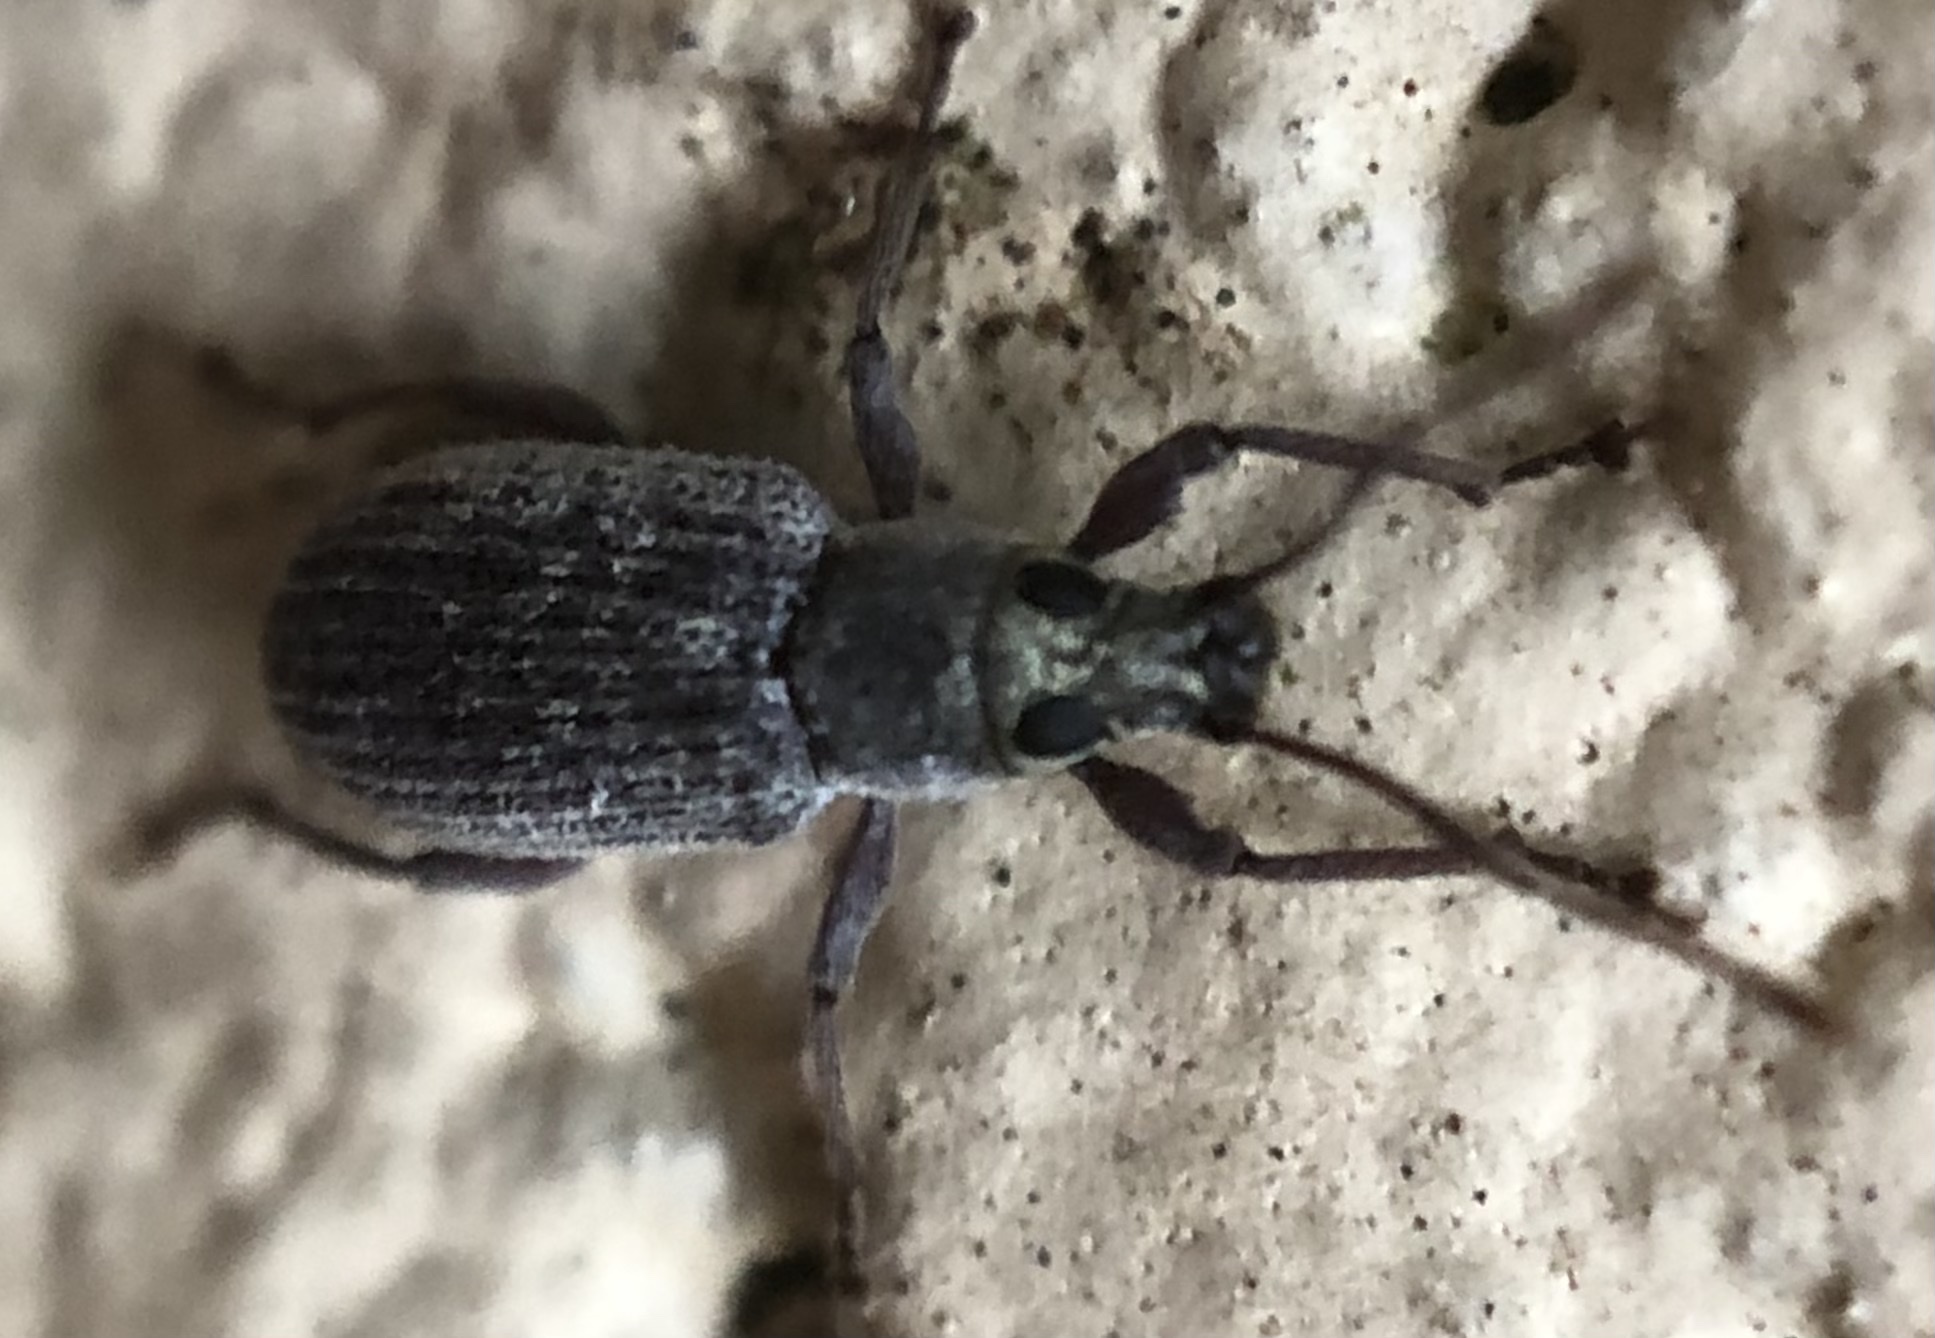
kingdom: Animalia
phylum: Arthropoda
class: Insecta
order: Coleoptera
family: Curculionidae
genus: Cyrtepistomus
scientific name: Cyrtepistomus castaneus
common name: Weevil
